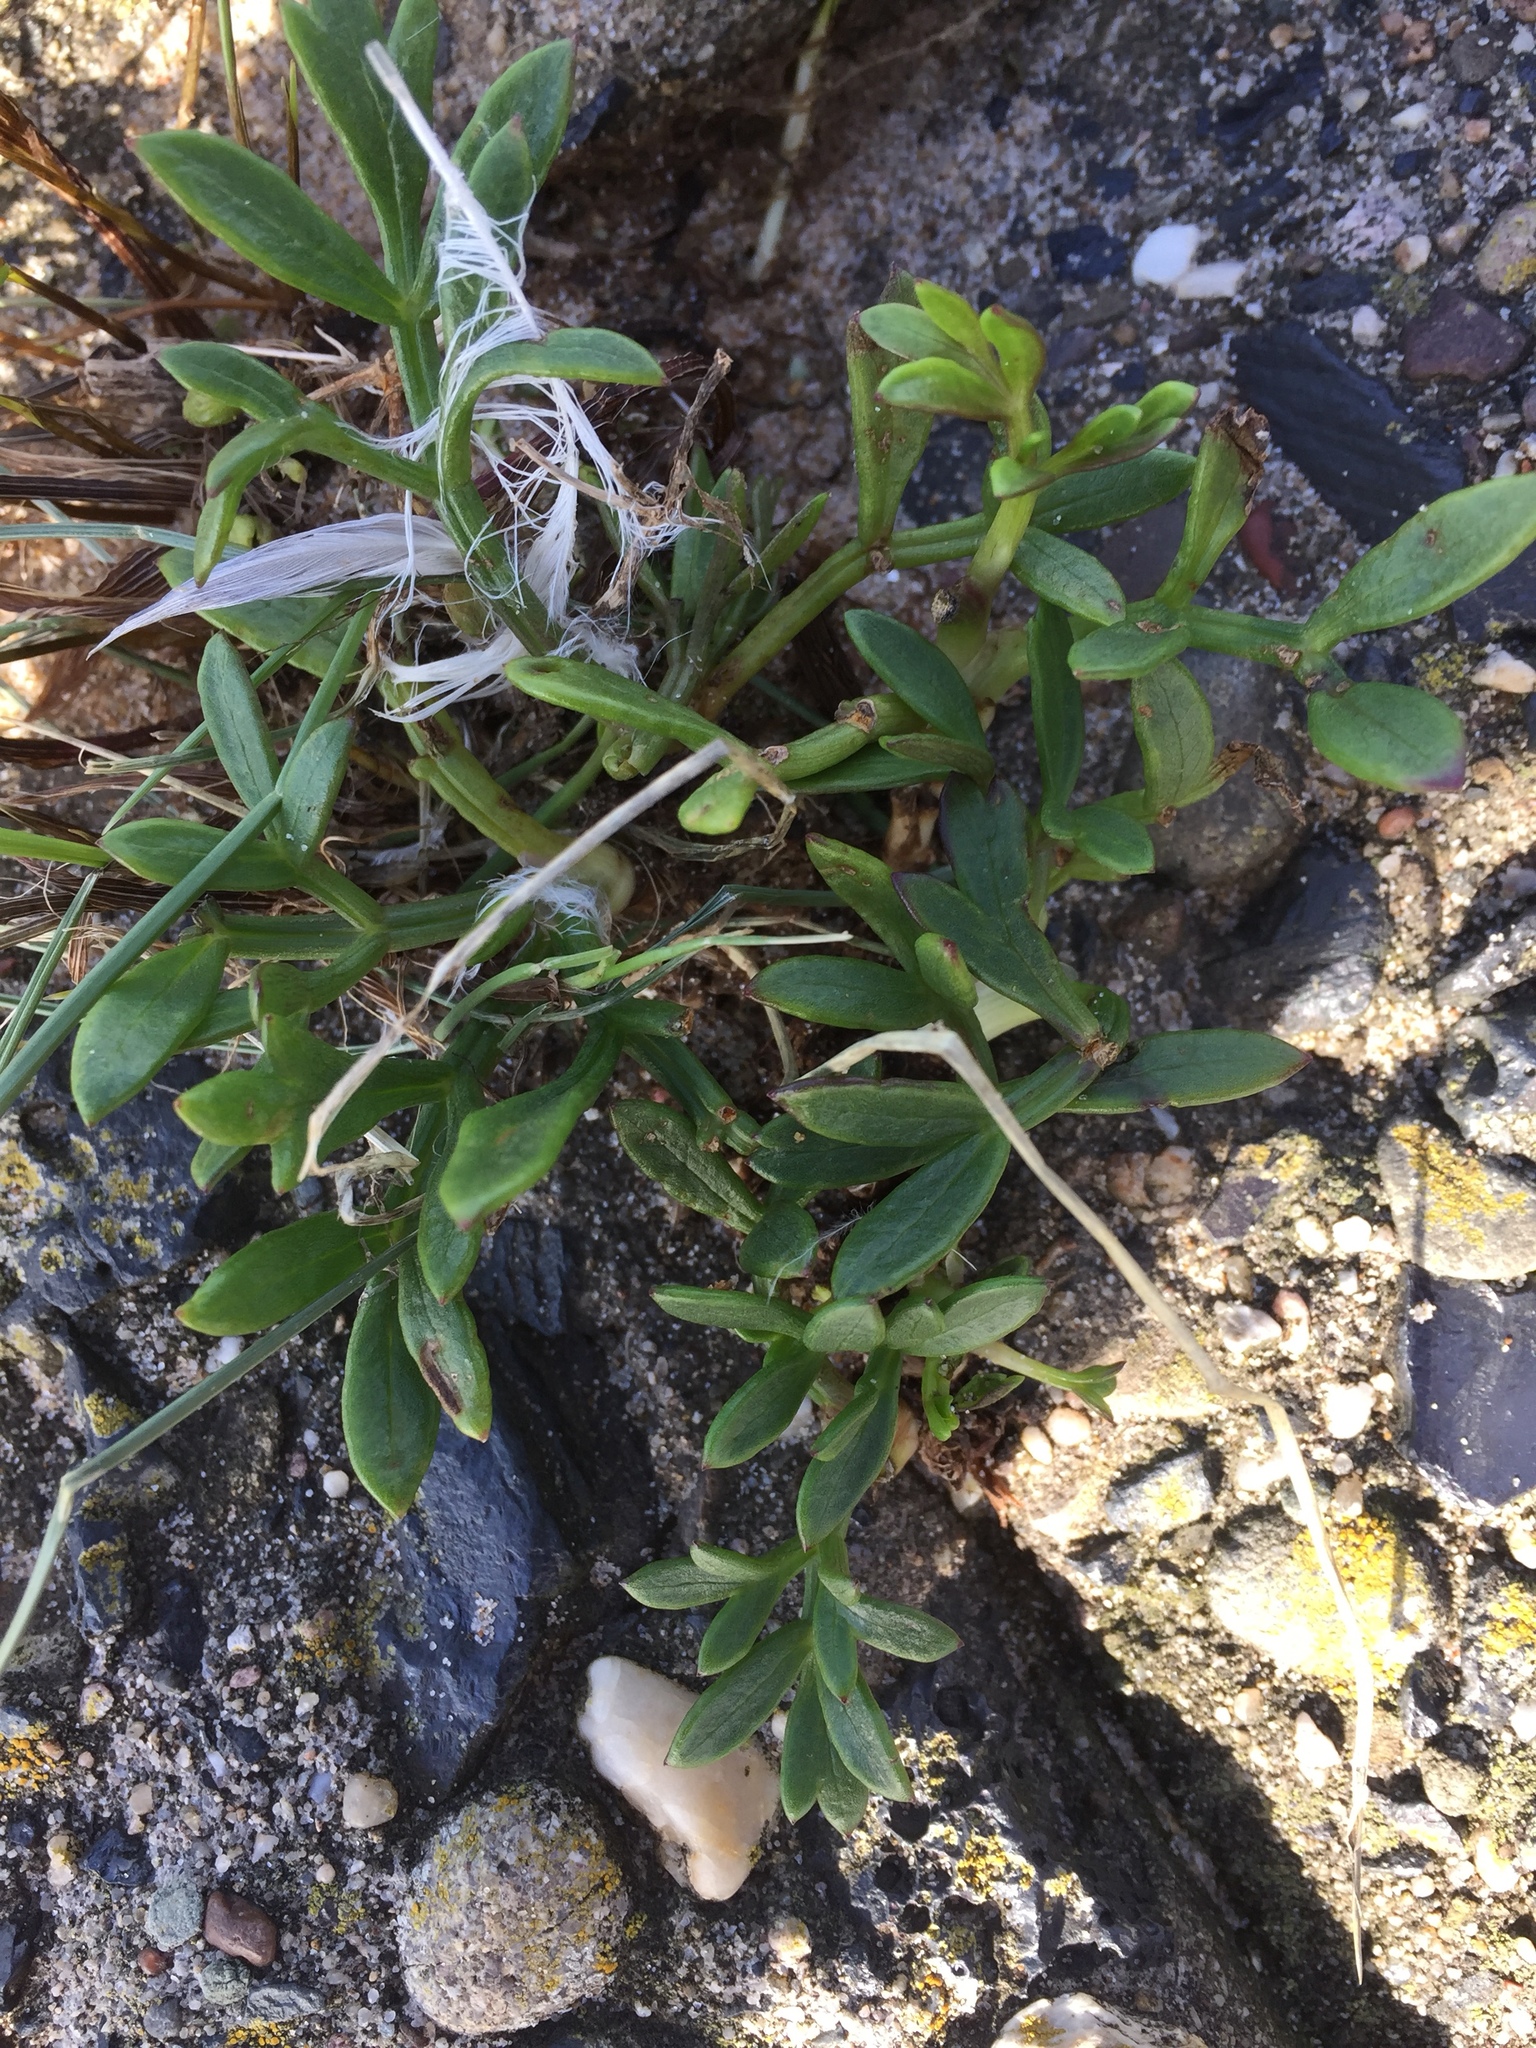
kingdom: Plantae
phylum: Tracheophyta
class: Magnoliopsida
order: Apiales
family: Apiaceae
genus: Crithmum
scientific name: Crithmum maritimum
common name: Rock samphire
